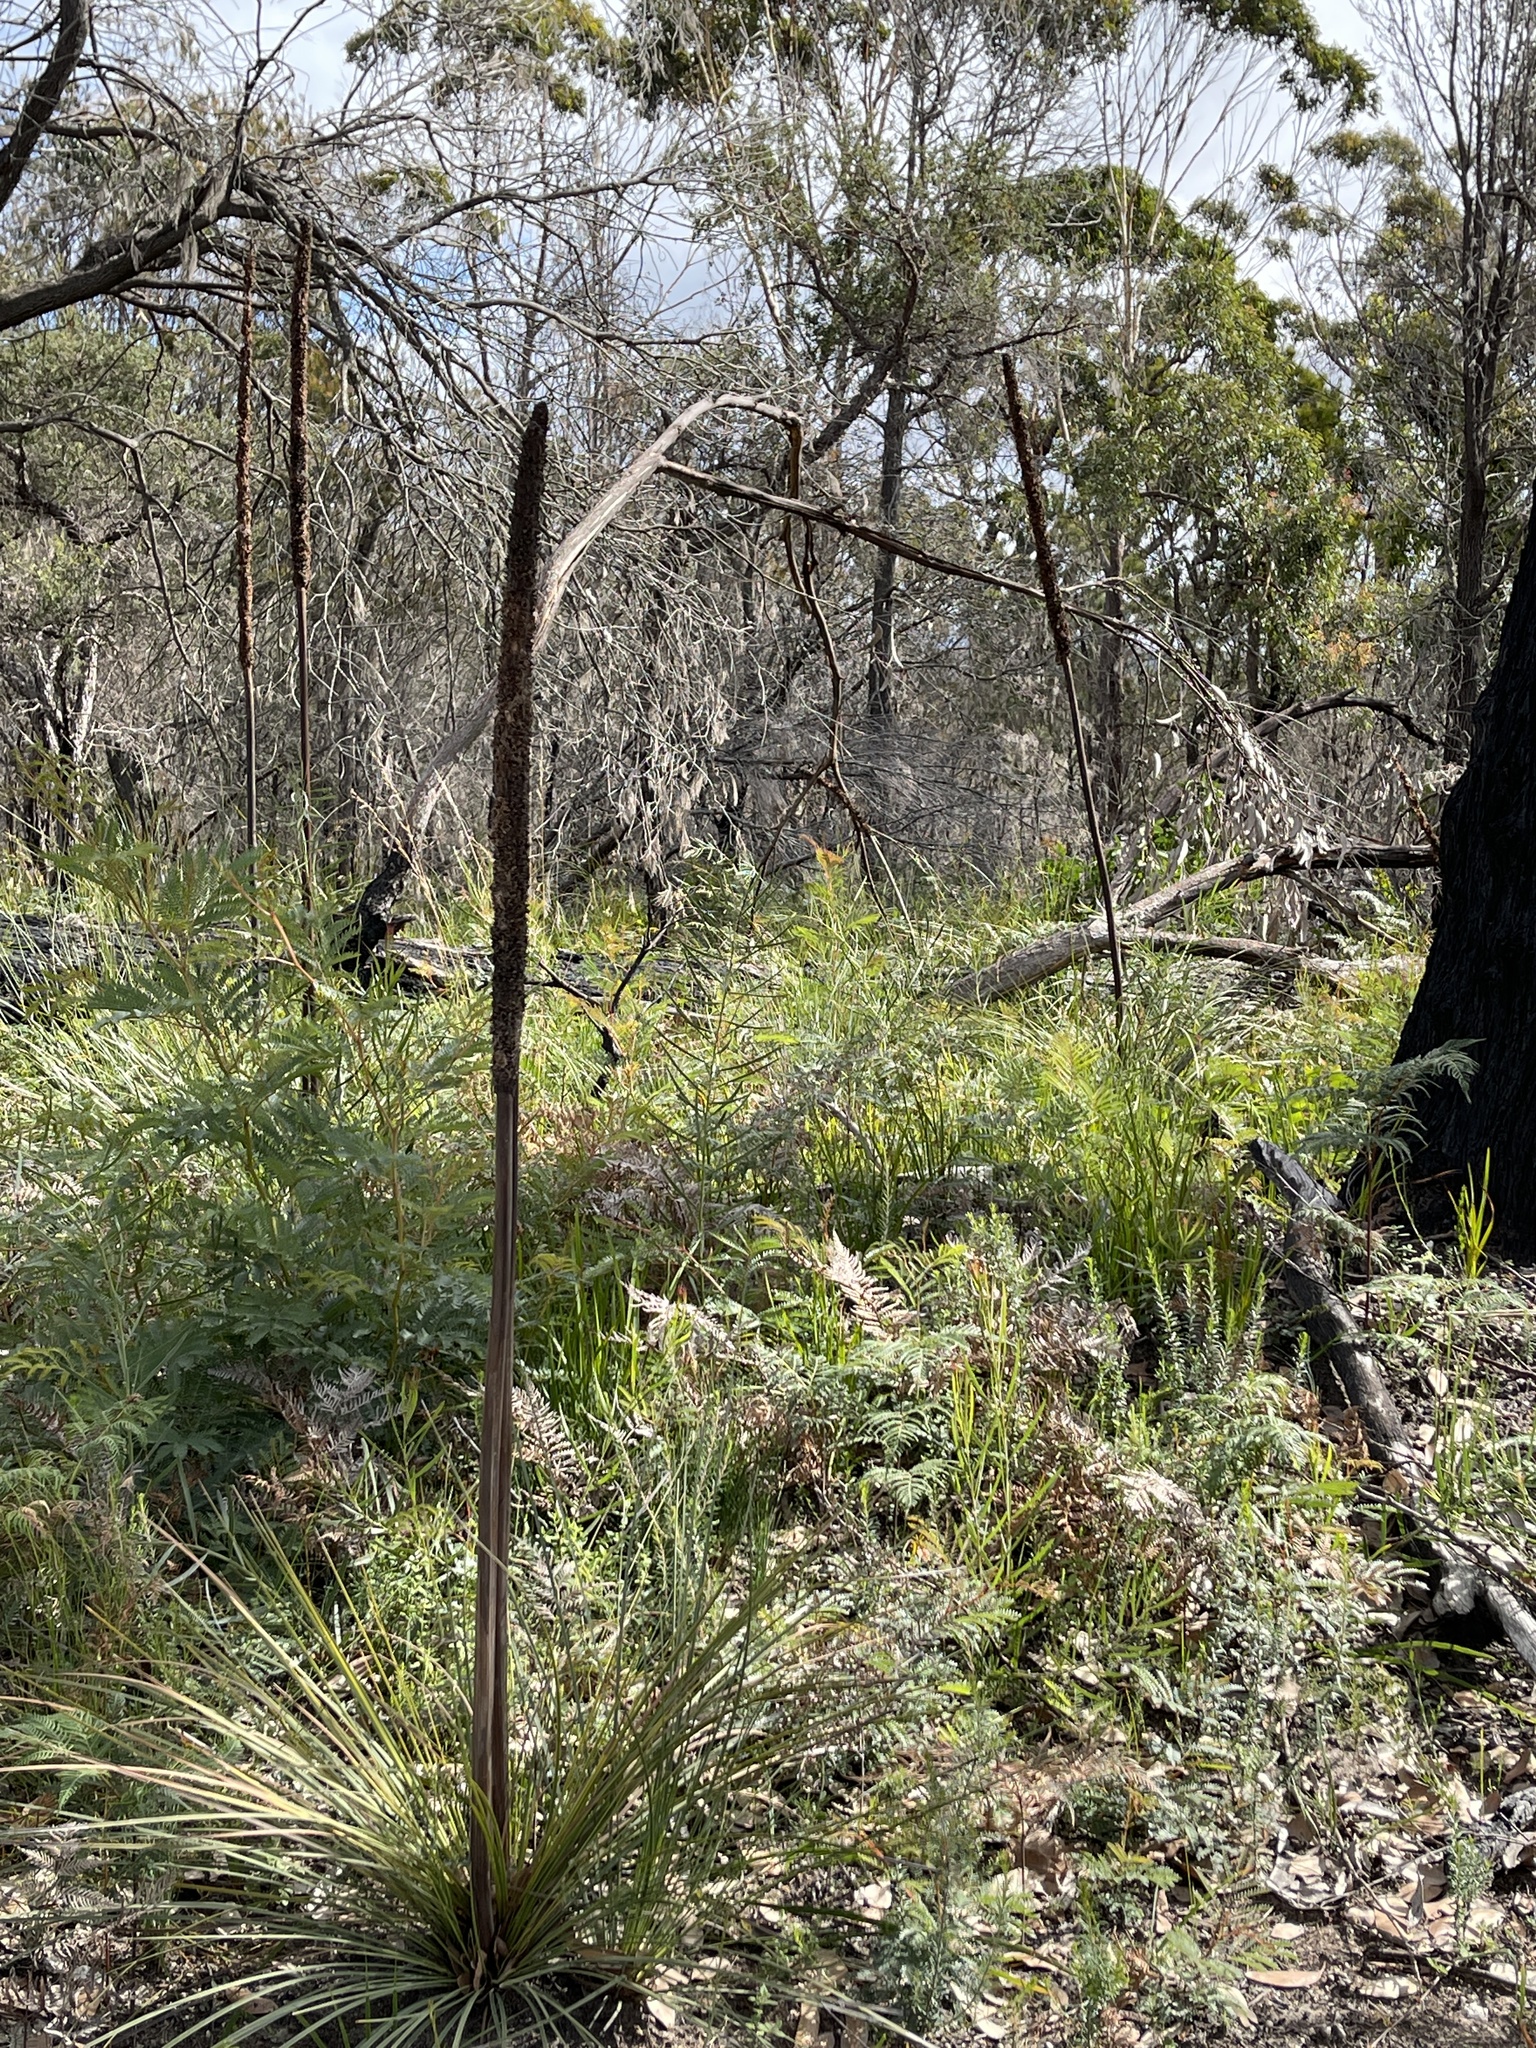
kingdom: Plantae
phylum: Tracheophyta
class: Liliopsida
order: Asparagales
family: Asphodelaceae
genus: Xanthorrhoea
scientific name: Xanthorrhoea concava
